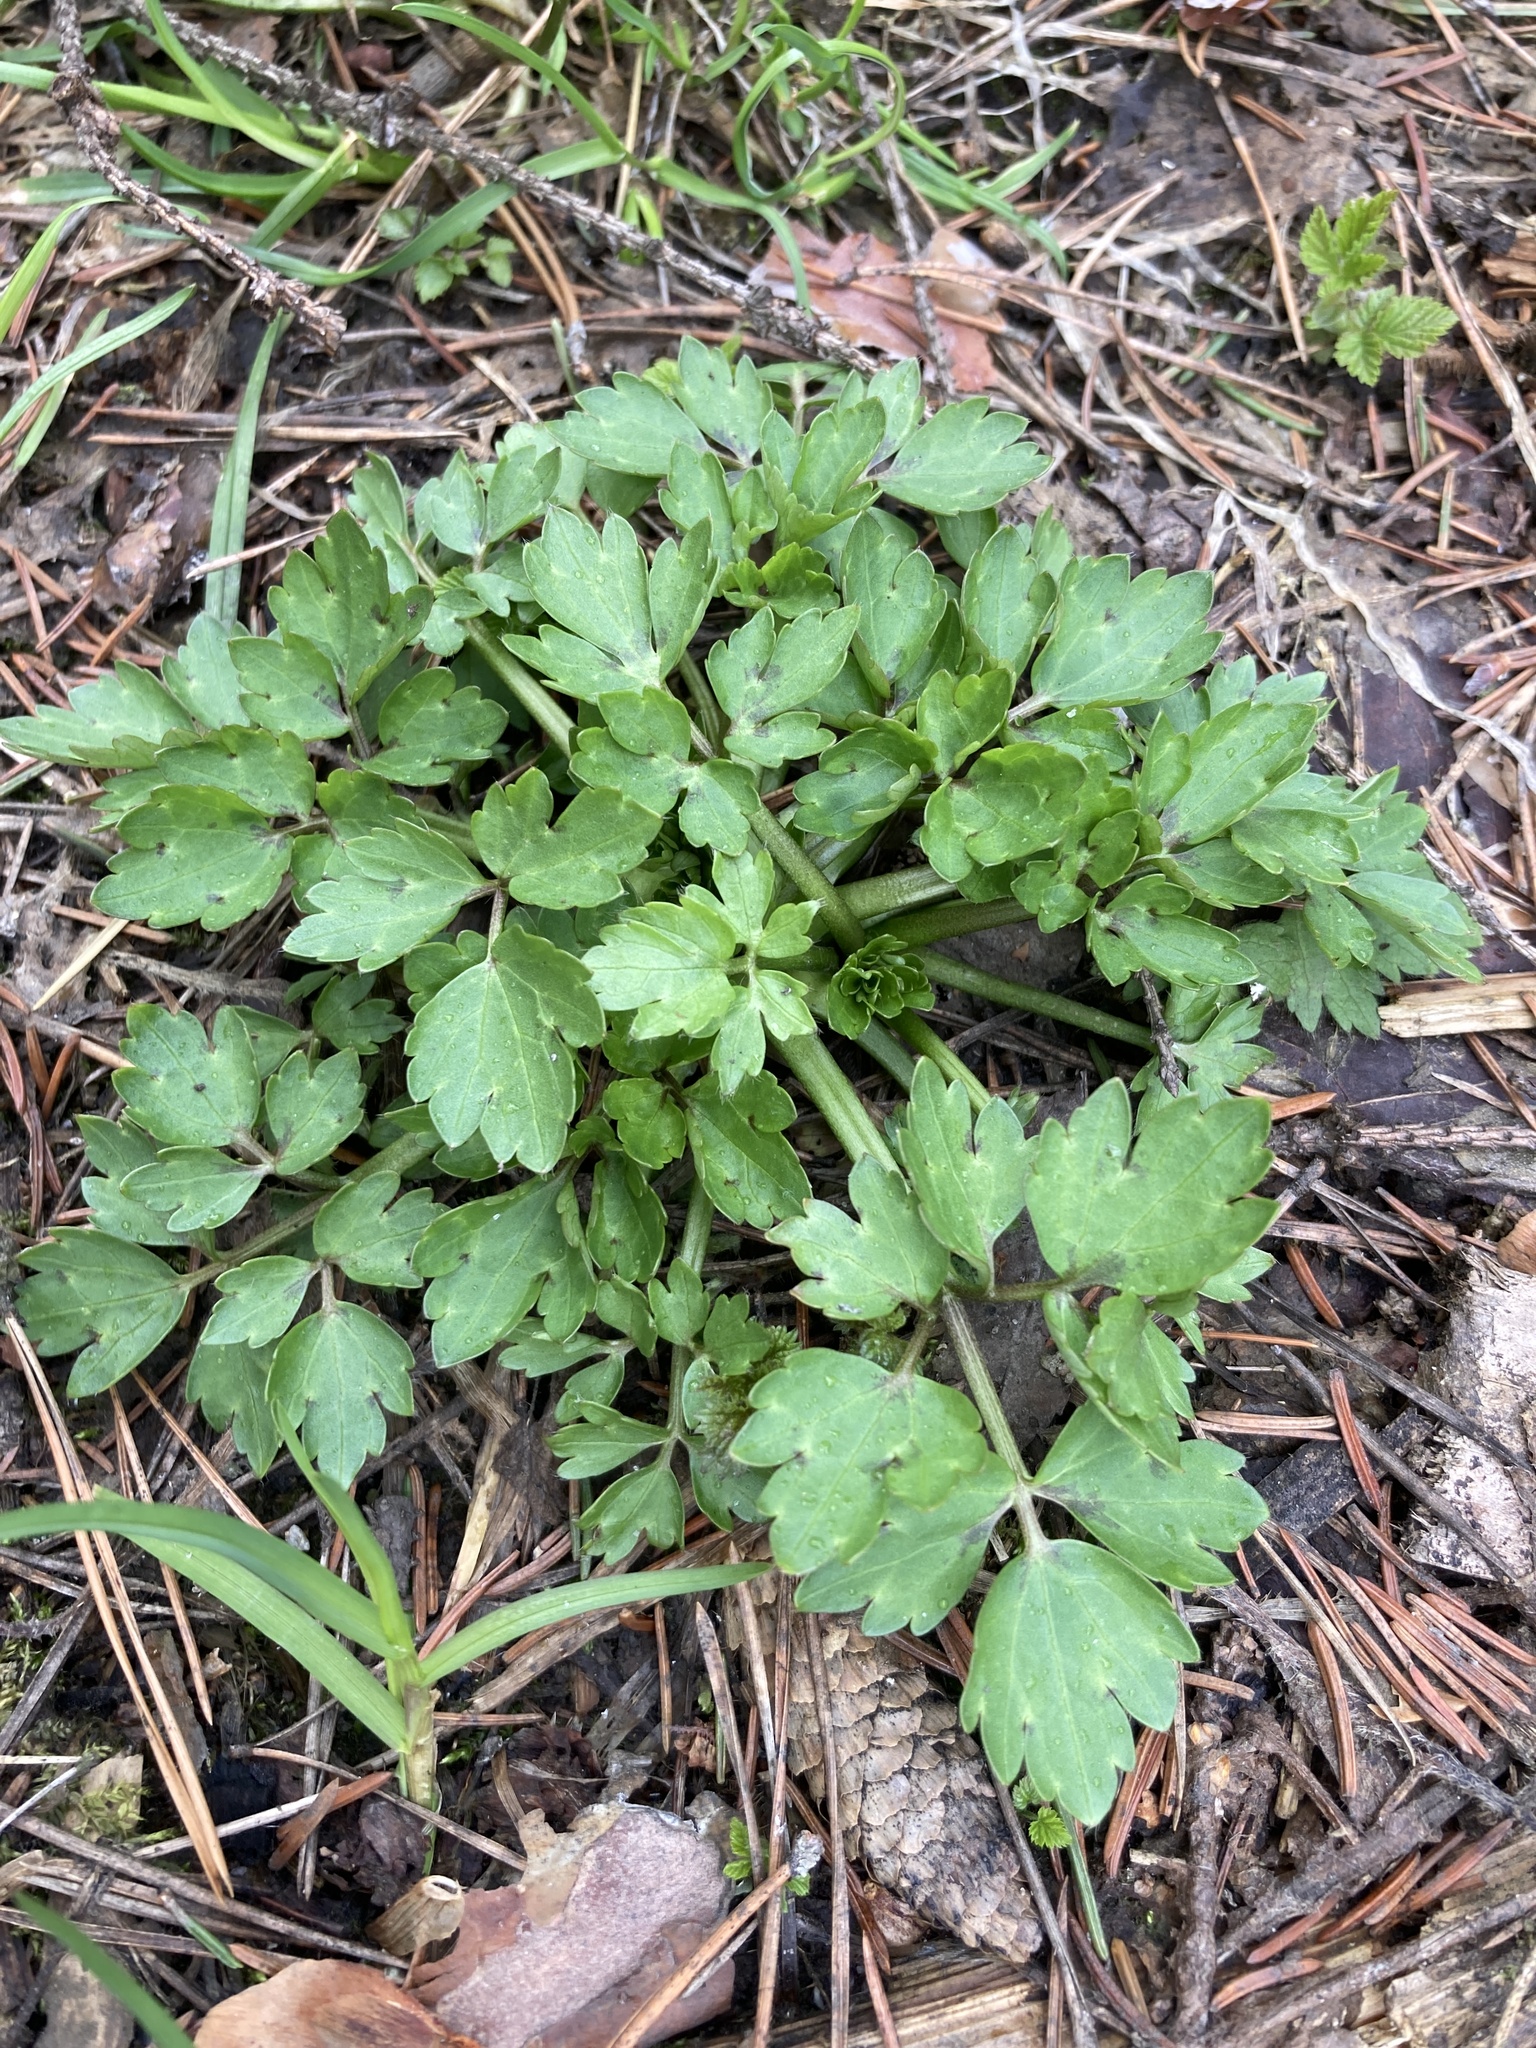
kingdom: Plantae
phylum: Tracheophyta
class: Magnoliopsida
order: Ranunculales
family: Ranunculaceae
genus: Ranunculus
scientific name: Ranunculus repens
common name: Creeping buttercup
